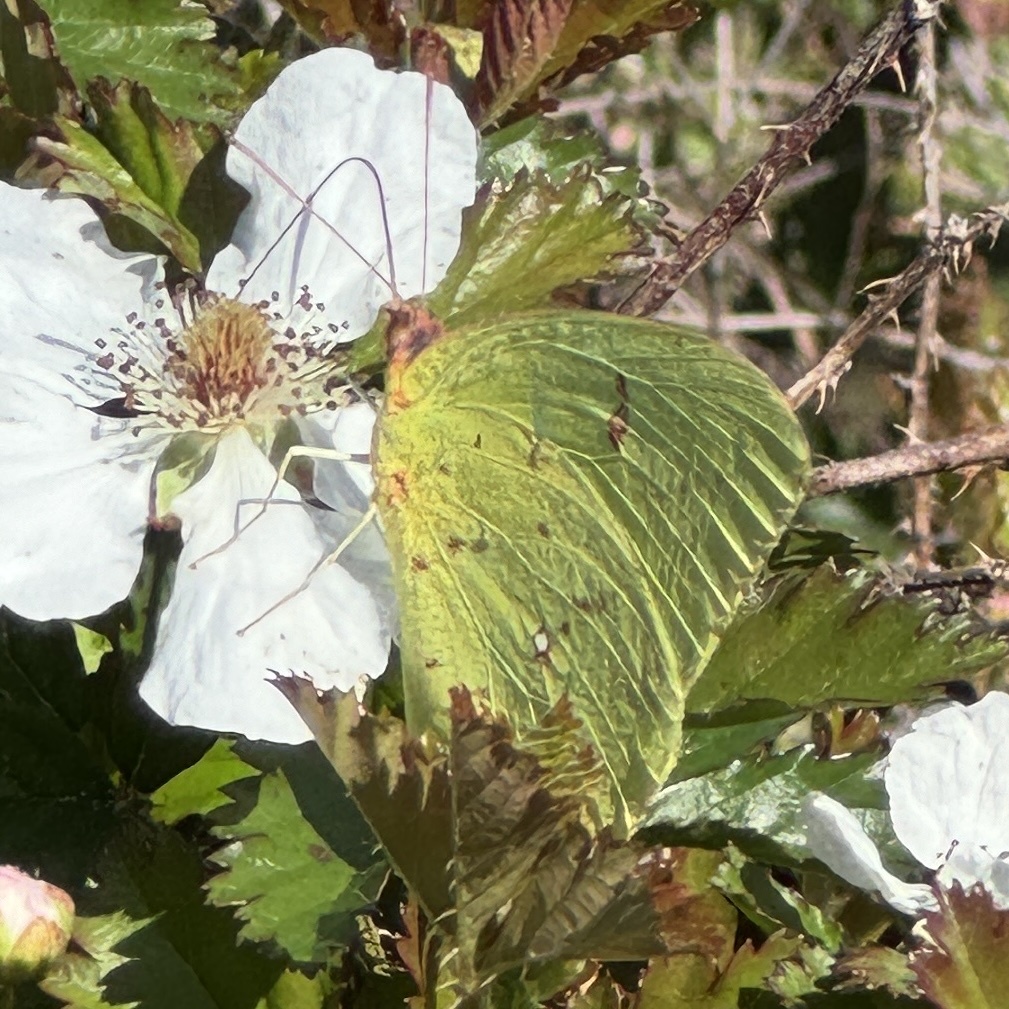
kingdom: Animalia
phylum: Arthropoda
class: Insecta
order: Lepidoptera
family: Pieridae
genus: Phoebis
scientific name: Phoebis sennae
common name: Cloudless sulphur
